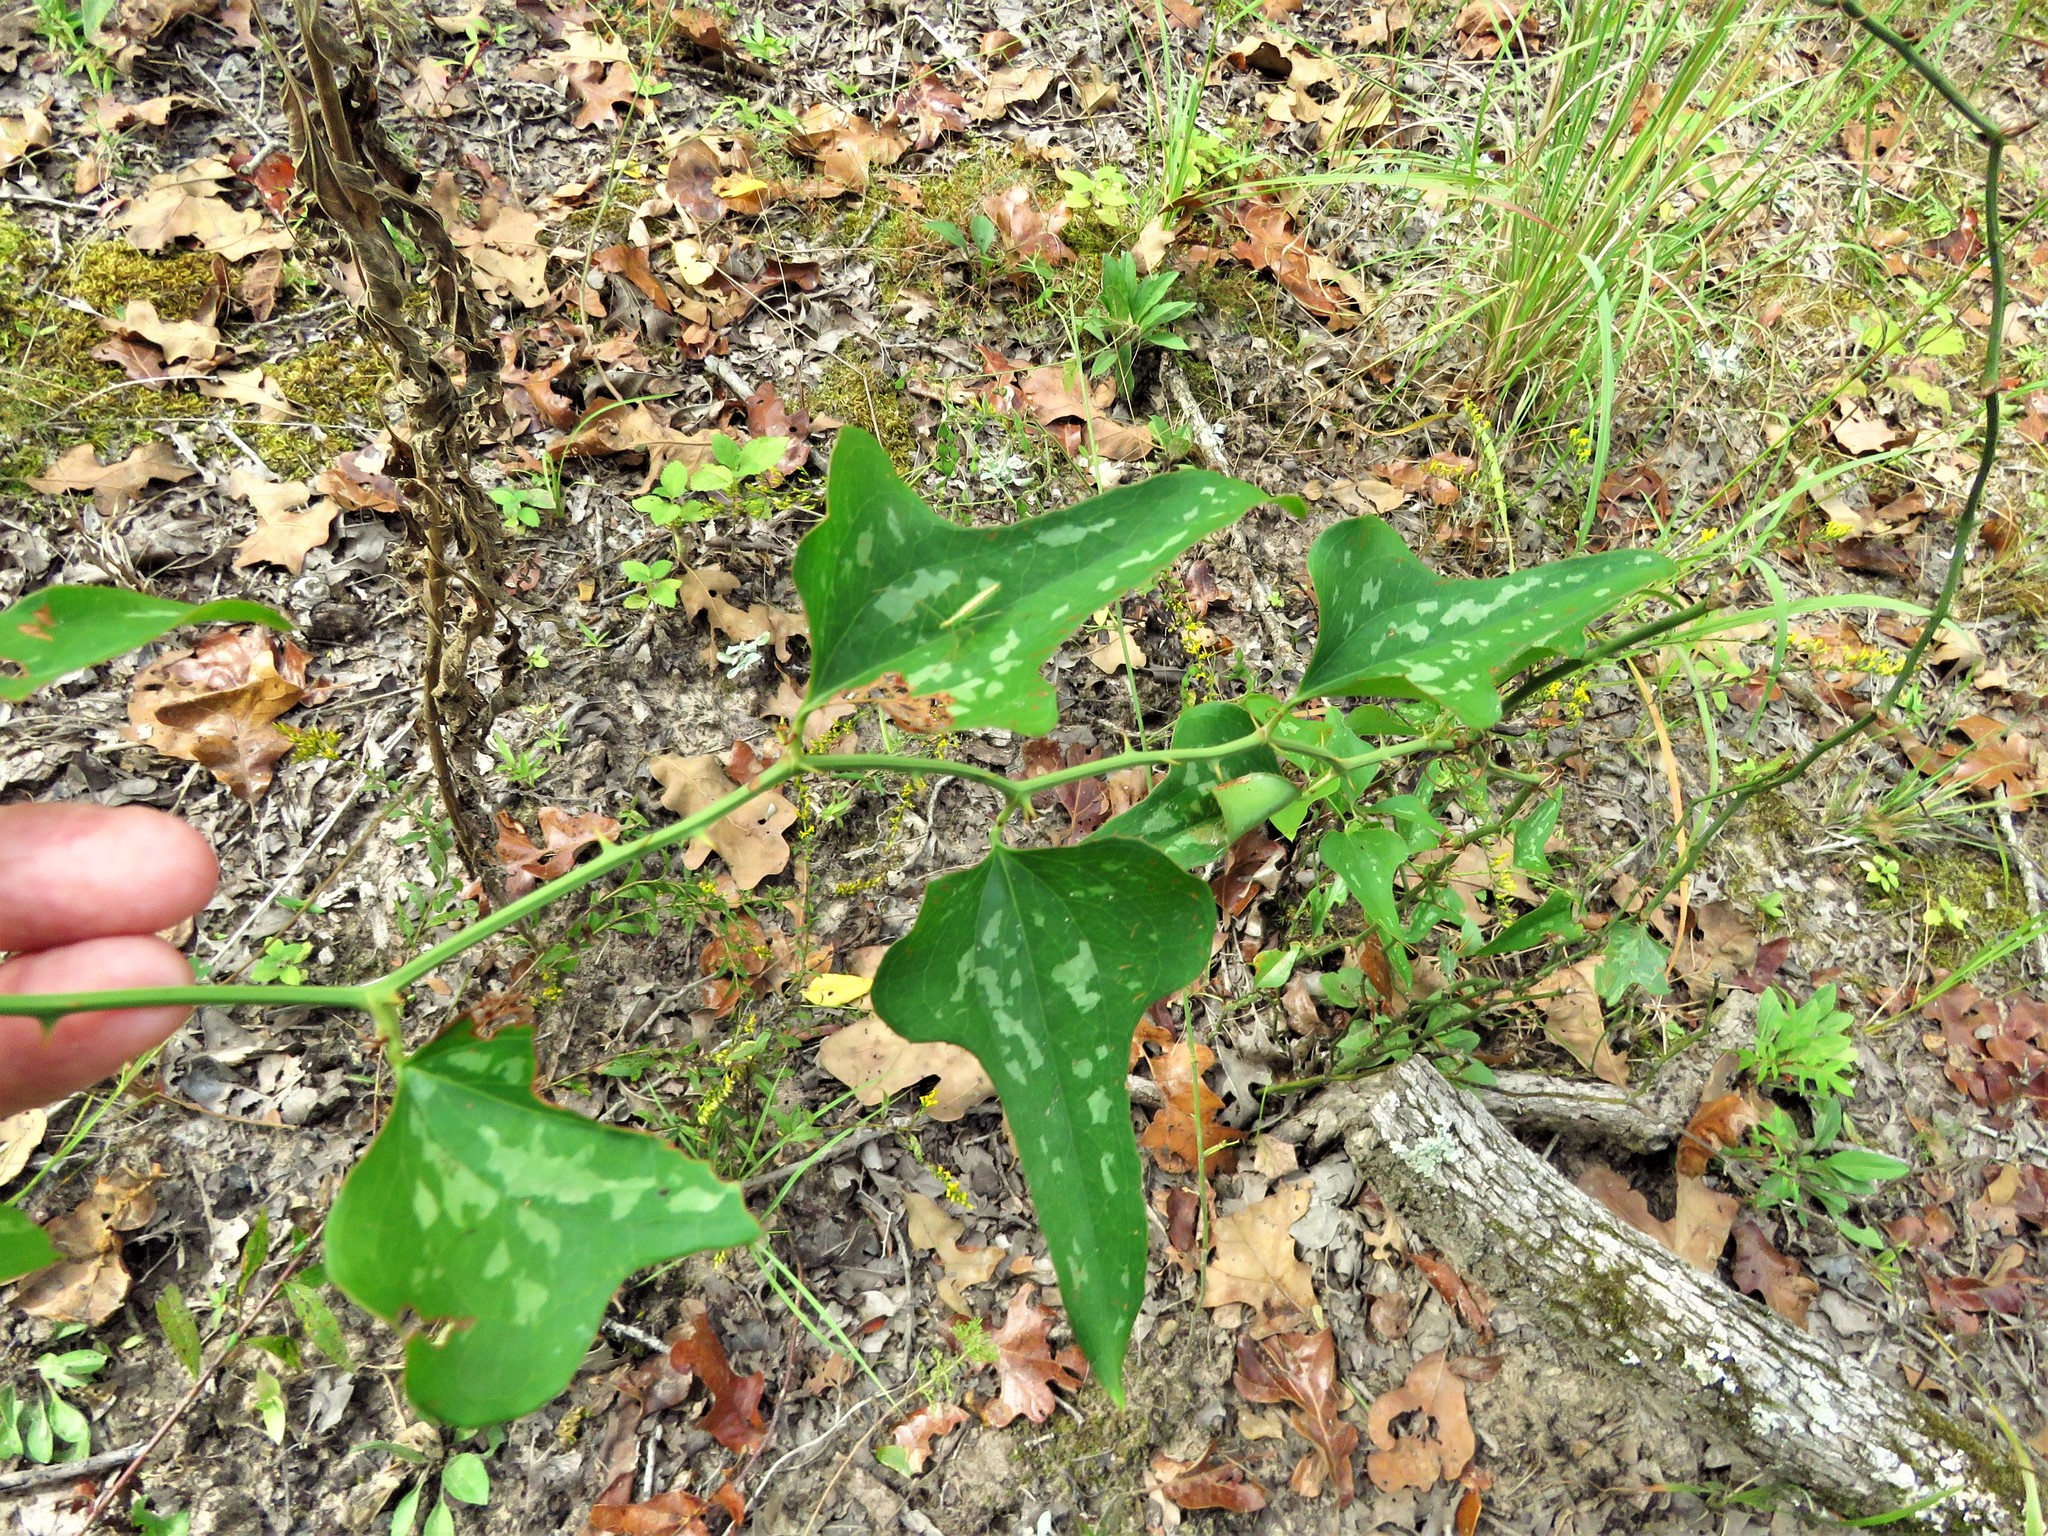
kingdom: Plantae
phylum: Tracheophyta
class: Liliopsida
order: Liliales
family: Smilacaceae
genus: Smilax
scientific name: Smilax bona-nox
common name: Catbrier
